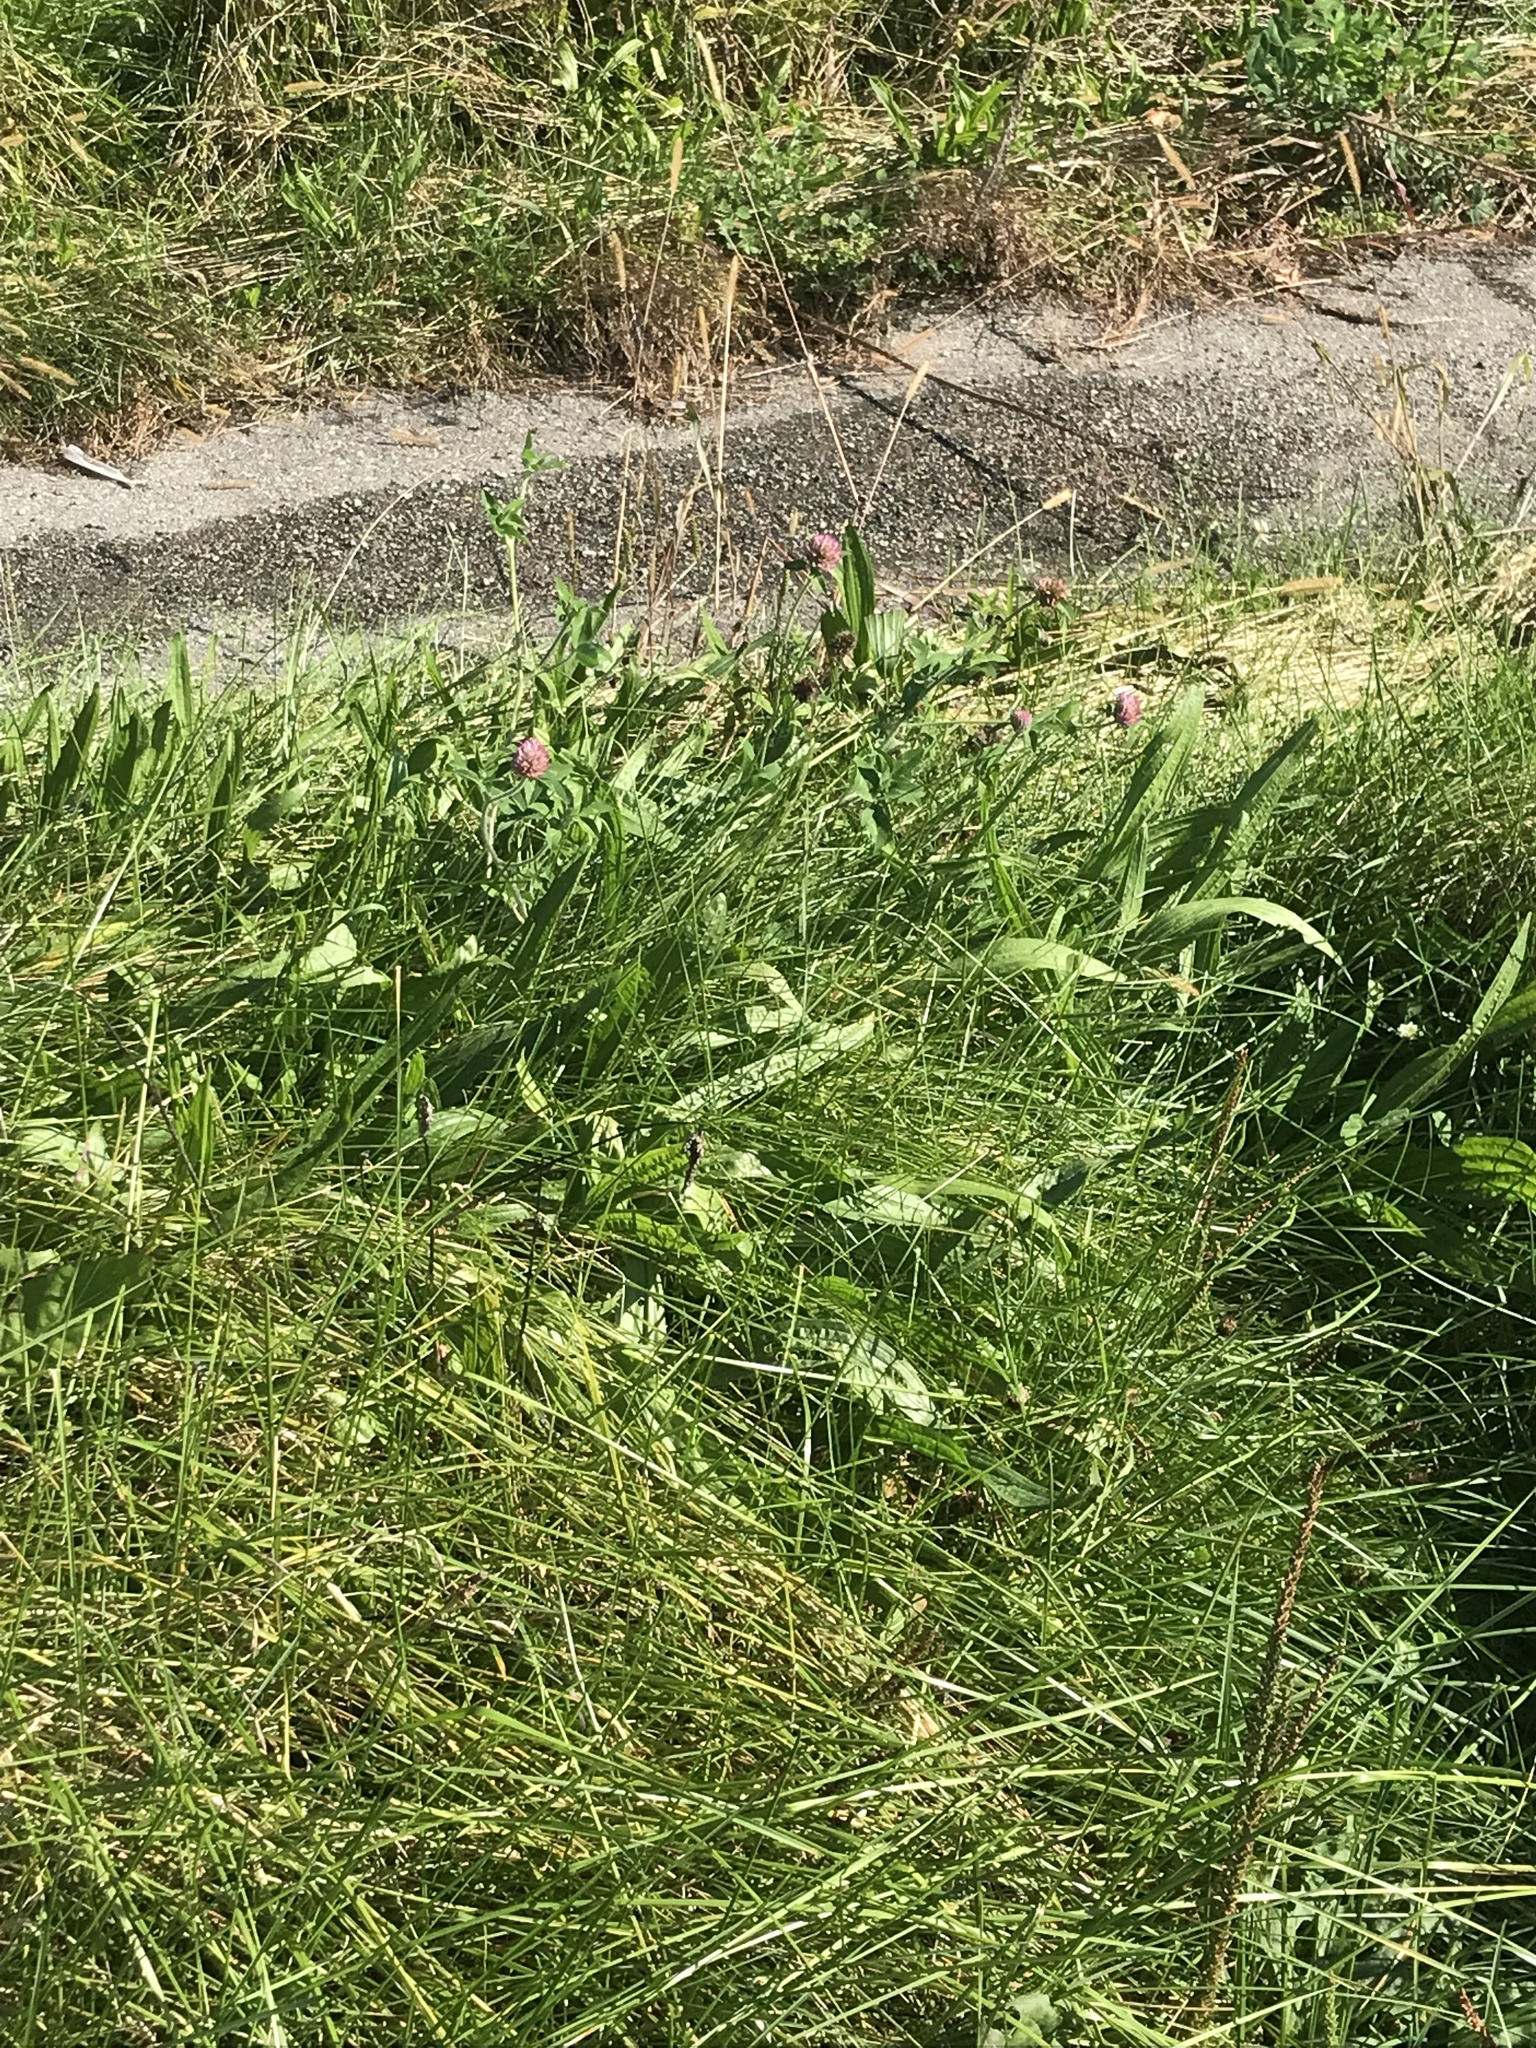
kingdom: Plantae
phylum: Tracheophyta
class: Magnoliopsida
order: Fabales
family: Fabaceae
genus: Trifolium
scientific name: Trifolium pratense
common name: Red clover
